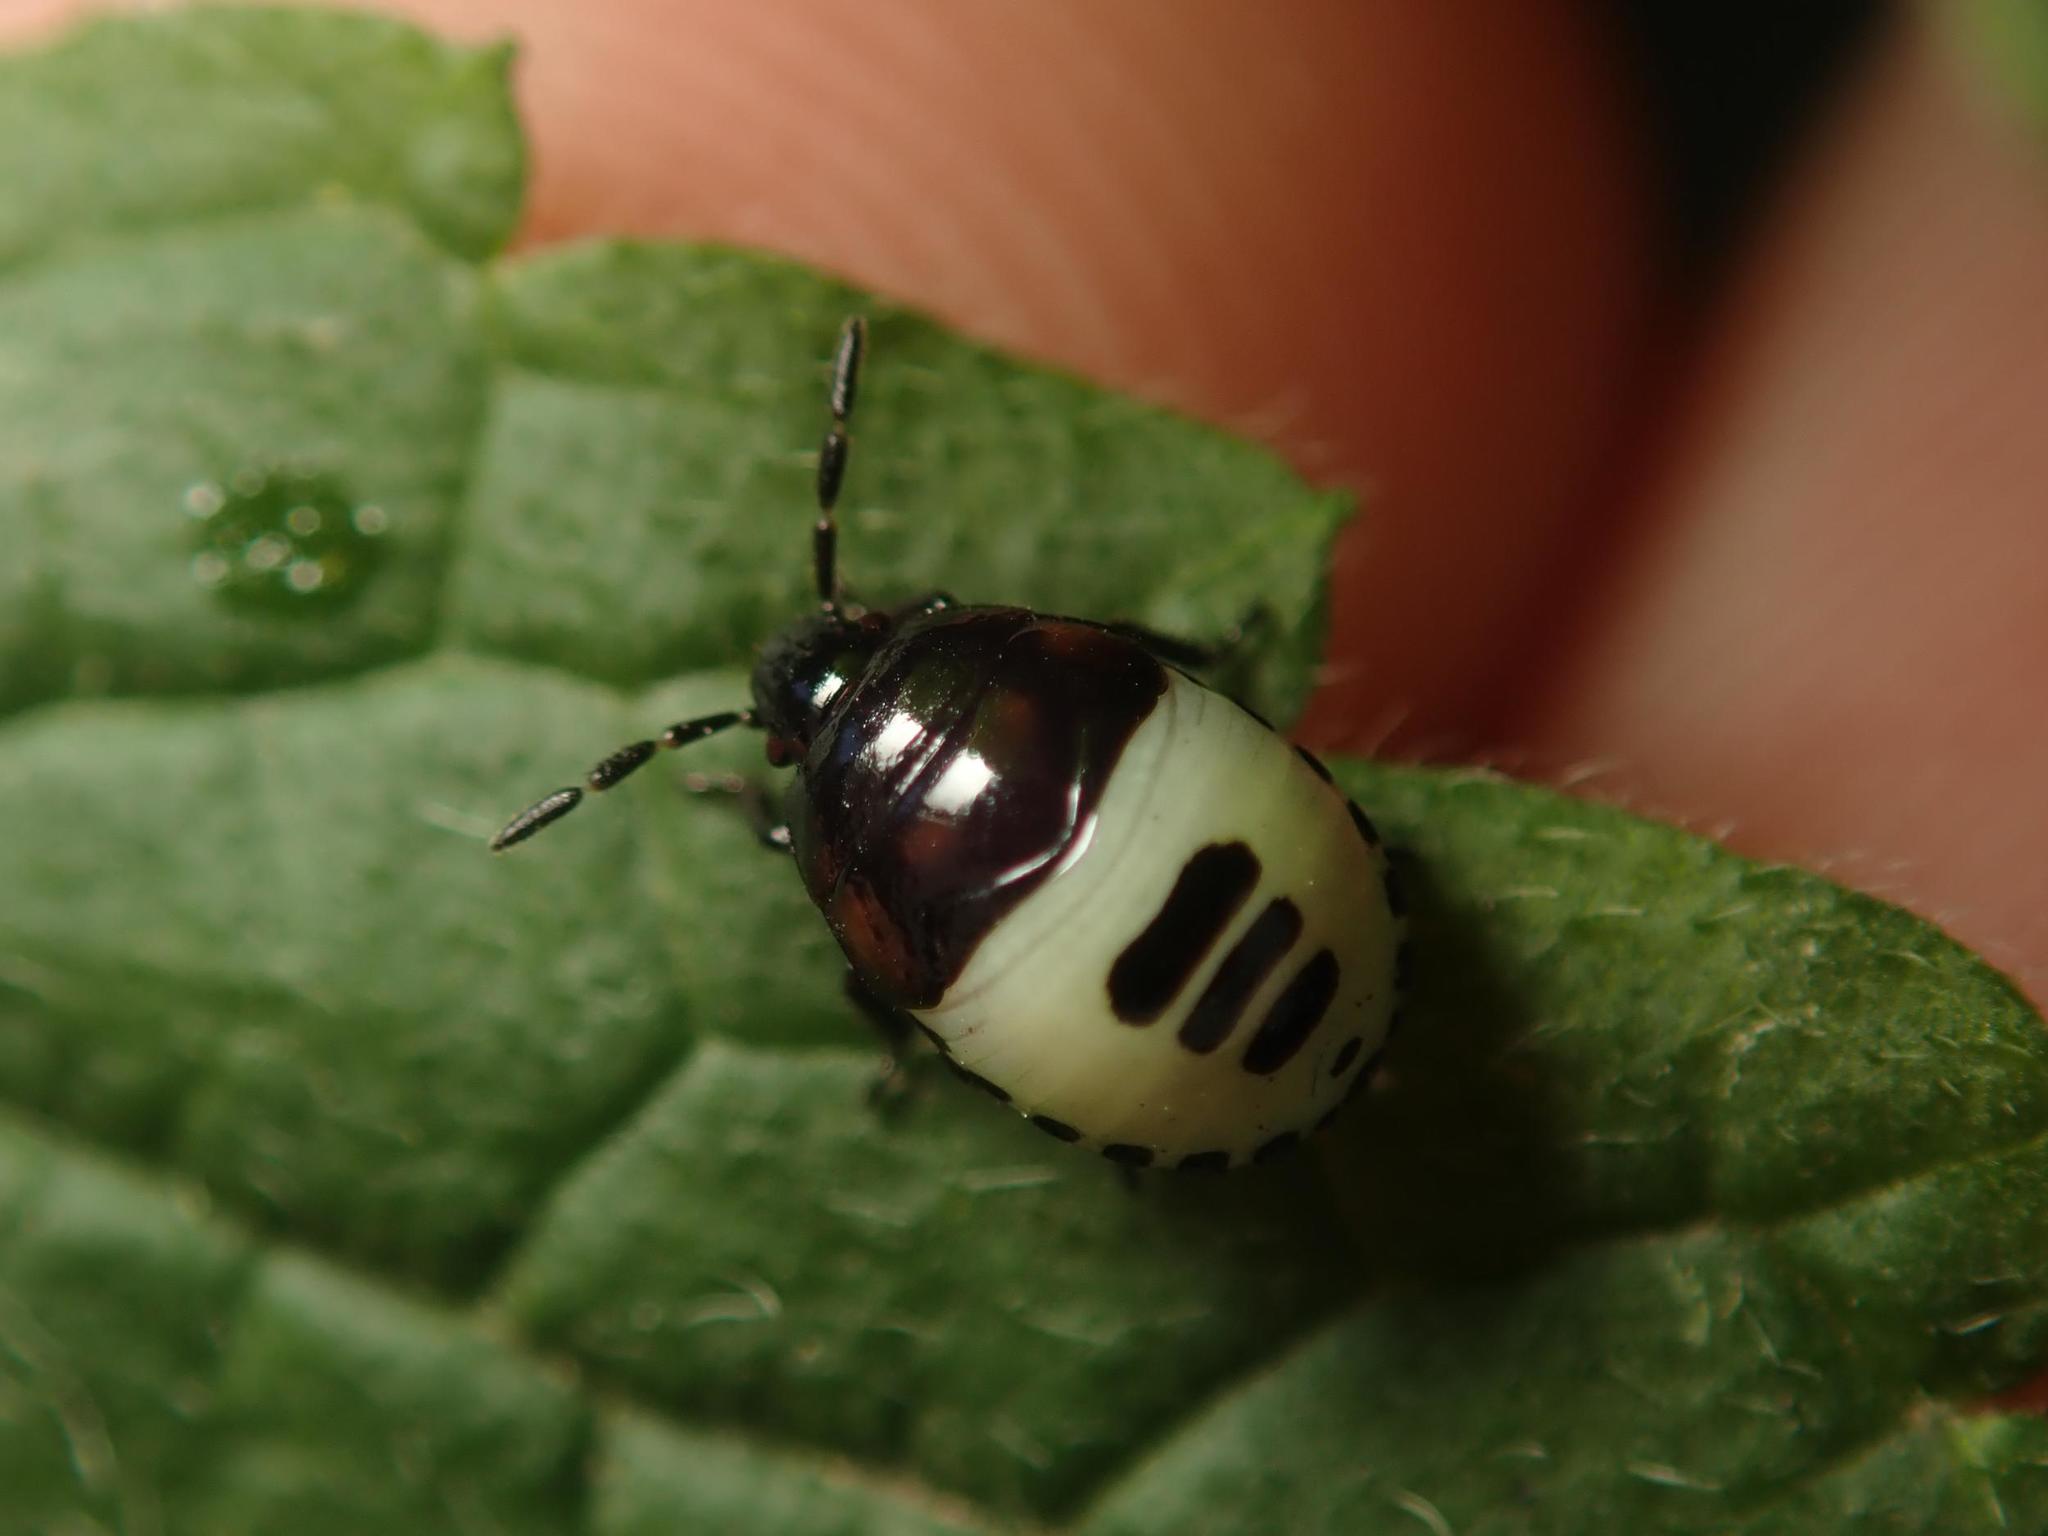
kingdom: Animalia
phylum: Arthropoda
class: Insecta
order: Hemiptera
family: Cydnidae
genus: Tritomegas
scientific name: Tritomegas sexmaculatus
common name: Rambur's pied shieldbug
